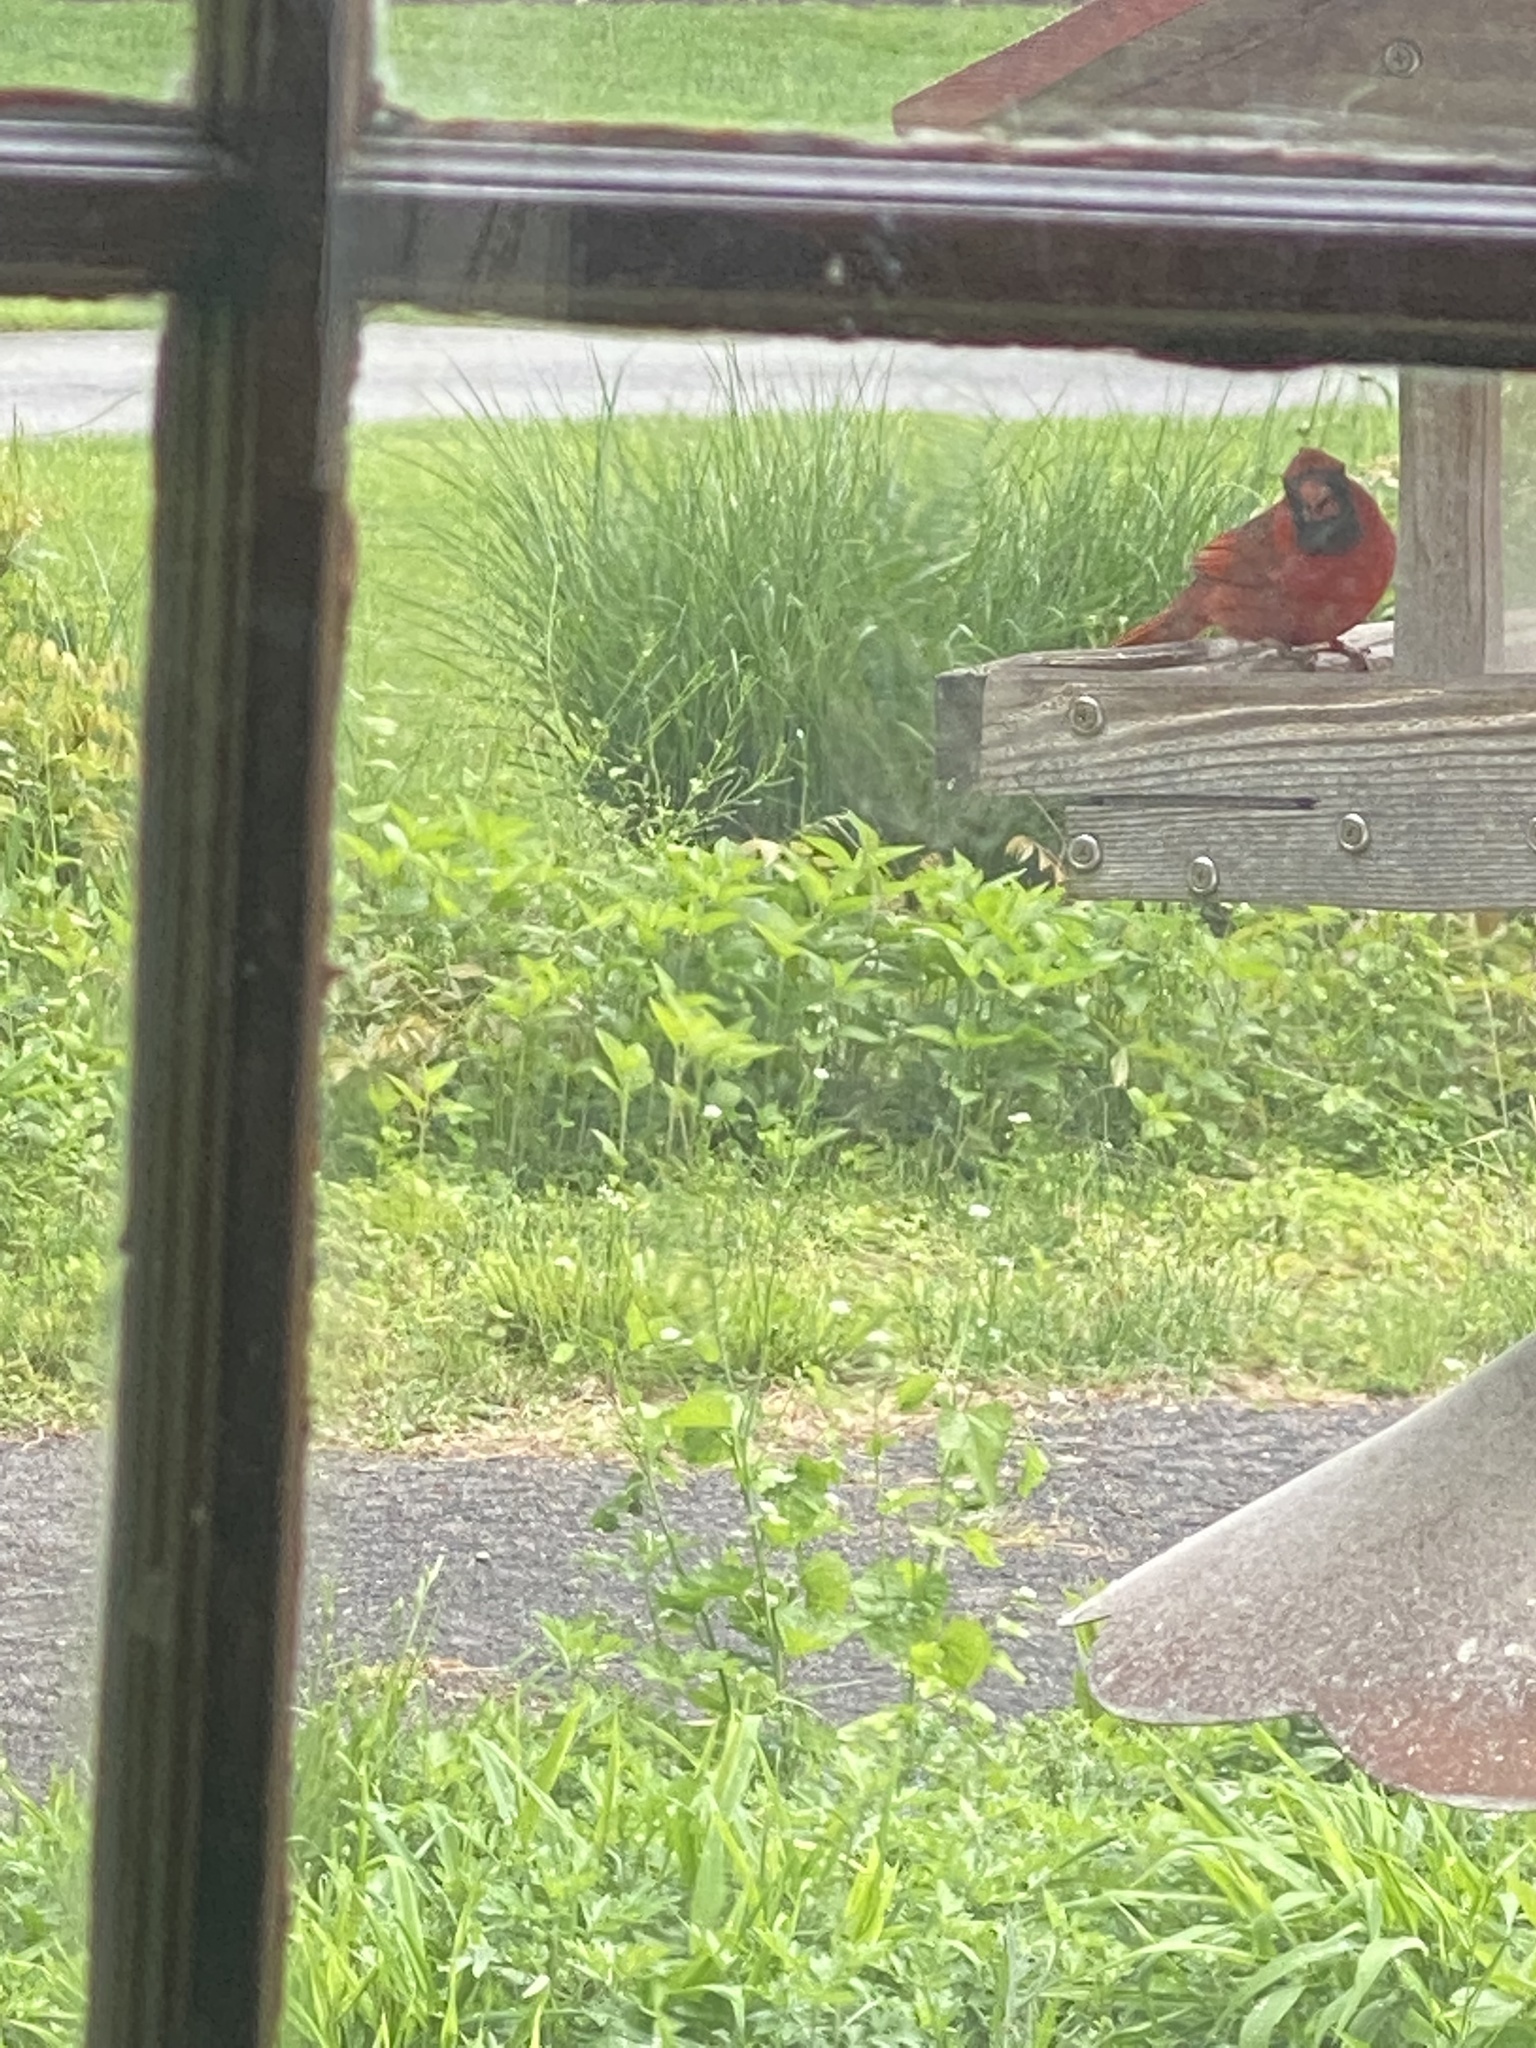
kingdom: Animalia
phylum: Chordata
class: Aves
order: Passeriformes
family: Cardinalidae
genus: Cardinalis
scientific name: Cardinalis cardinalis
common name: Northern cardinal
